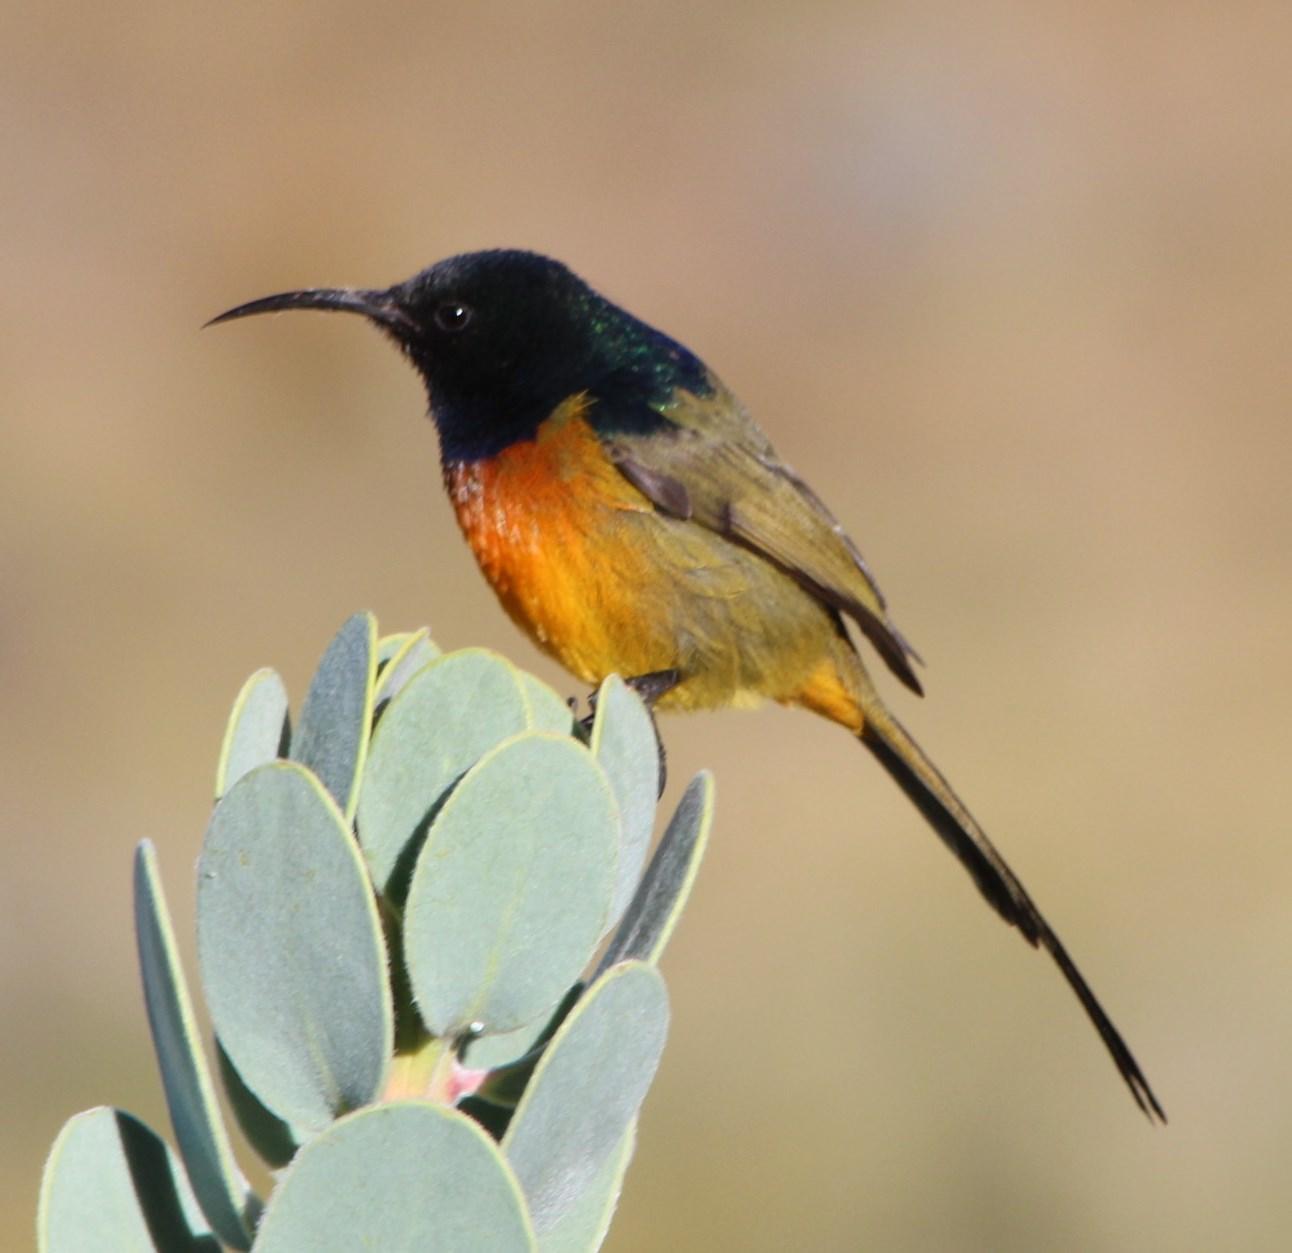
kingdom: Animalia
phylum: Chordata
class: Aves
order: Passeriformes
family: Nectariniidae
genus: Anthobaphes
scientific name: Anthobaphes violacea
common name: Orange-breasted sunbird
